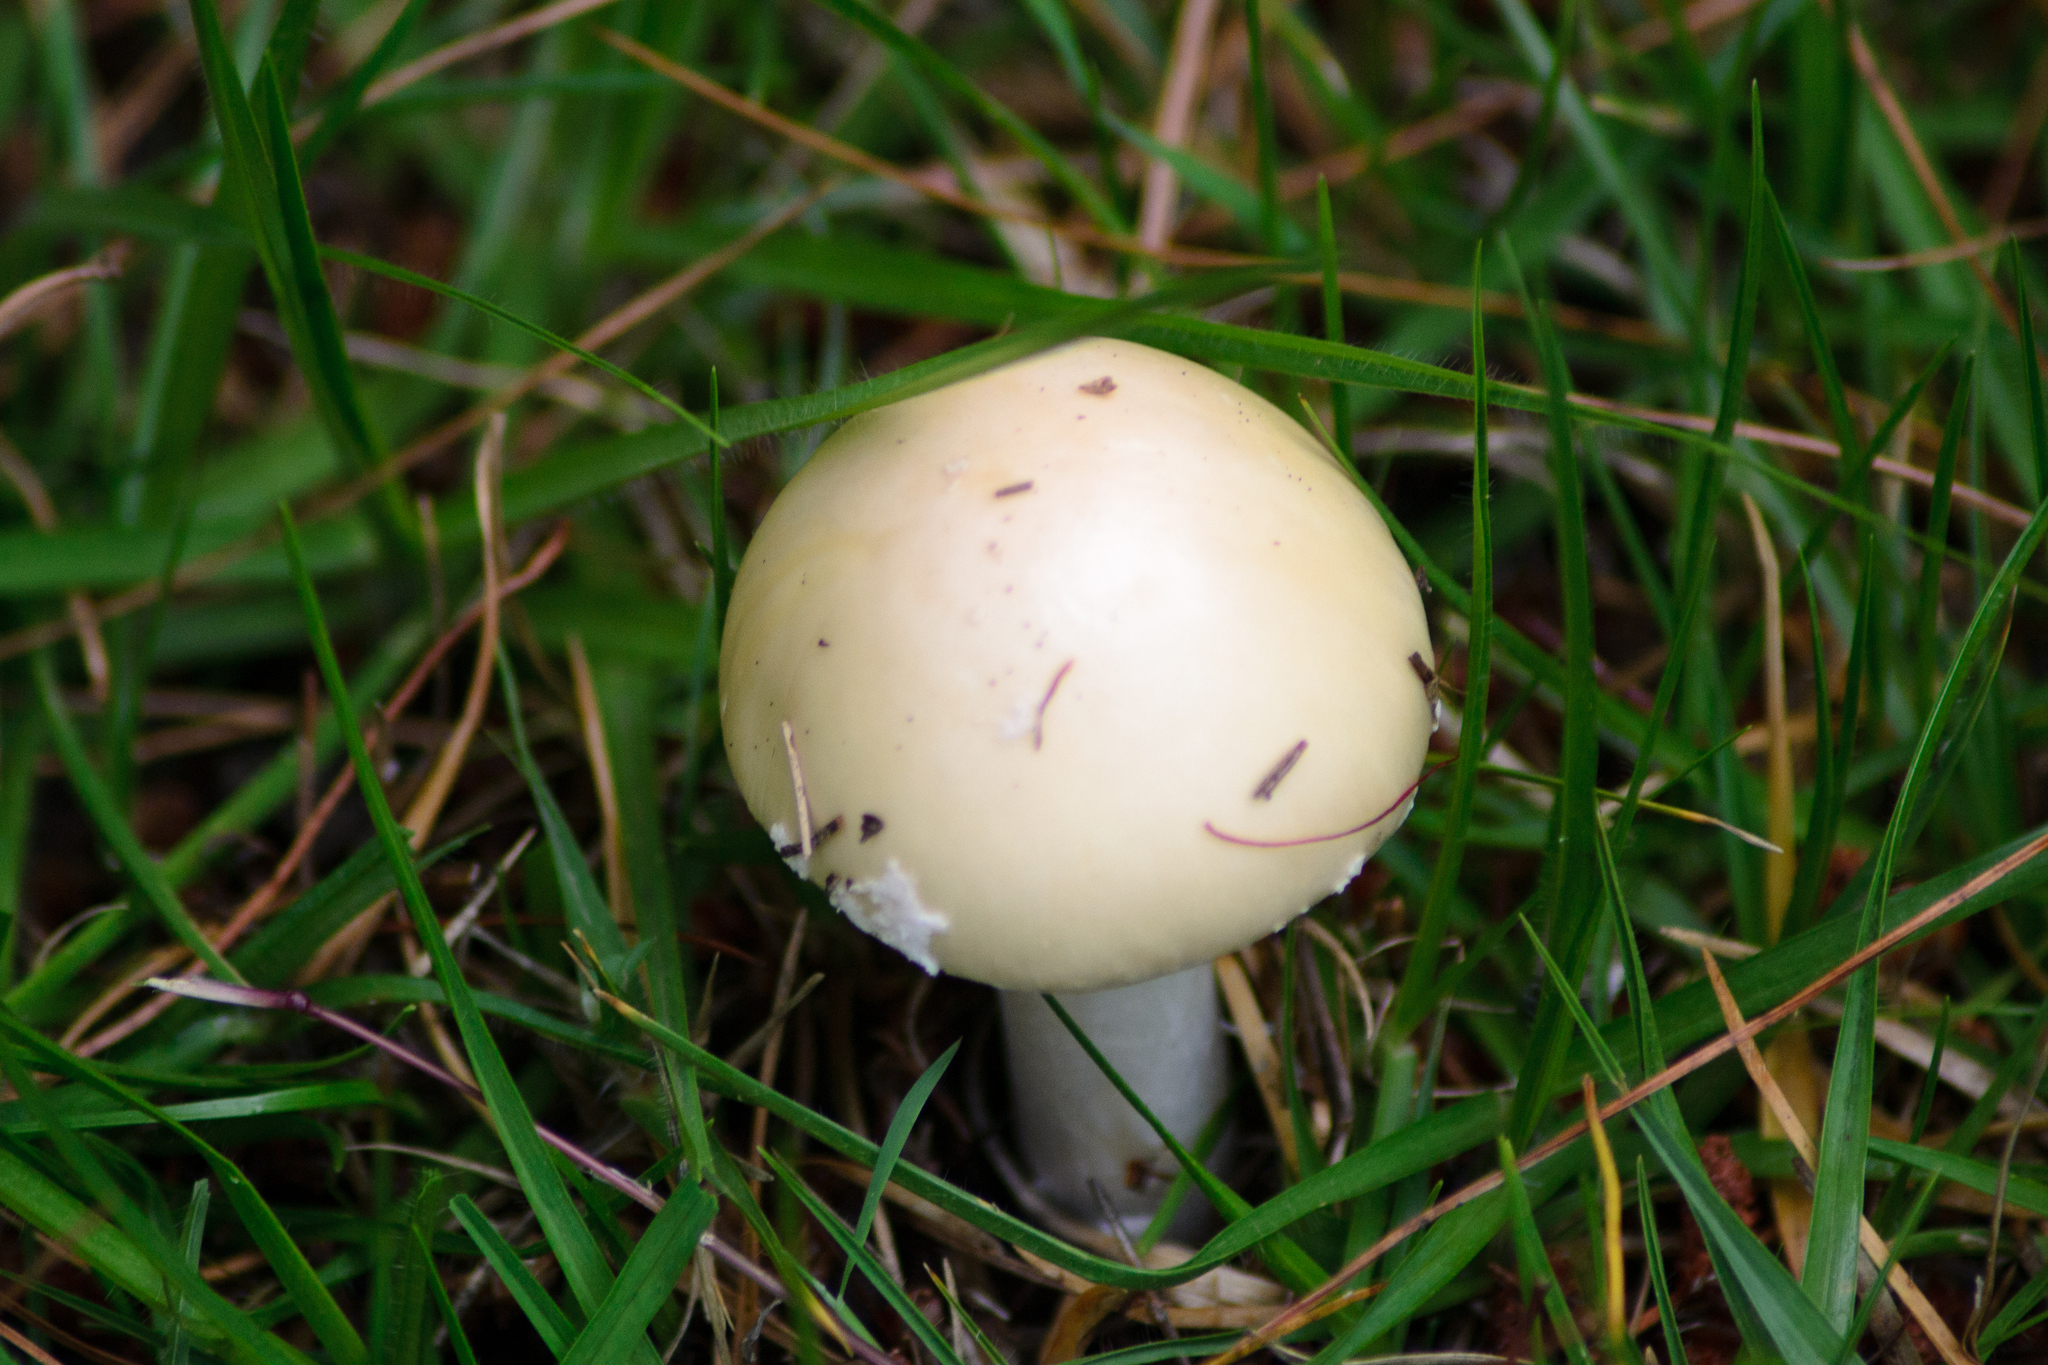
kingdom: Fungi
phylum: Basidiomycota
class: Agaricomycetes
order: Agaricales
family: Amanitaceae
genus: Amanita
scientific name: Amanita xylinivolva
